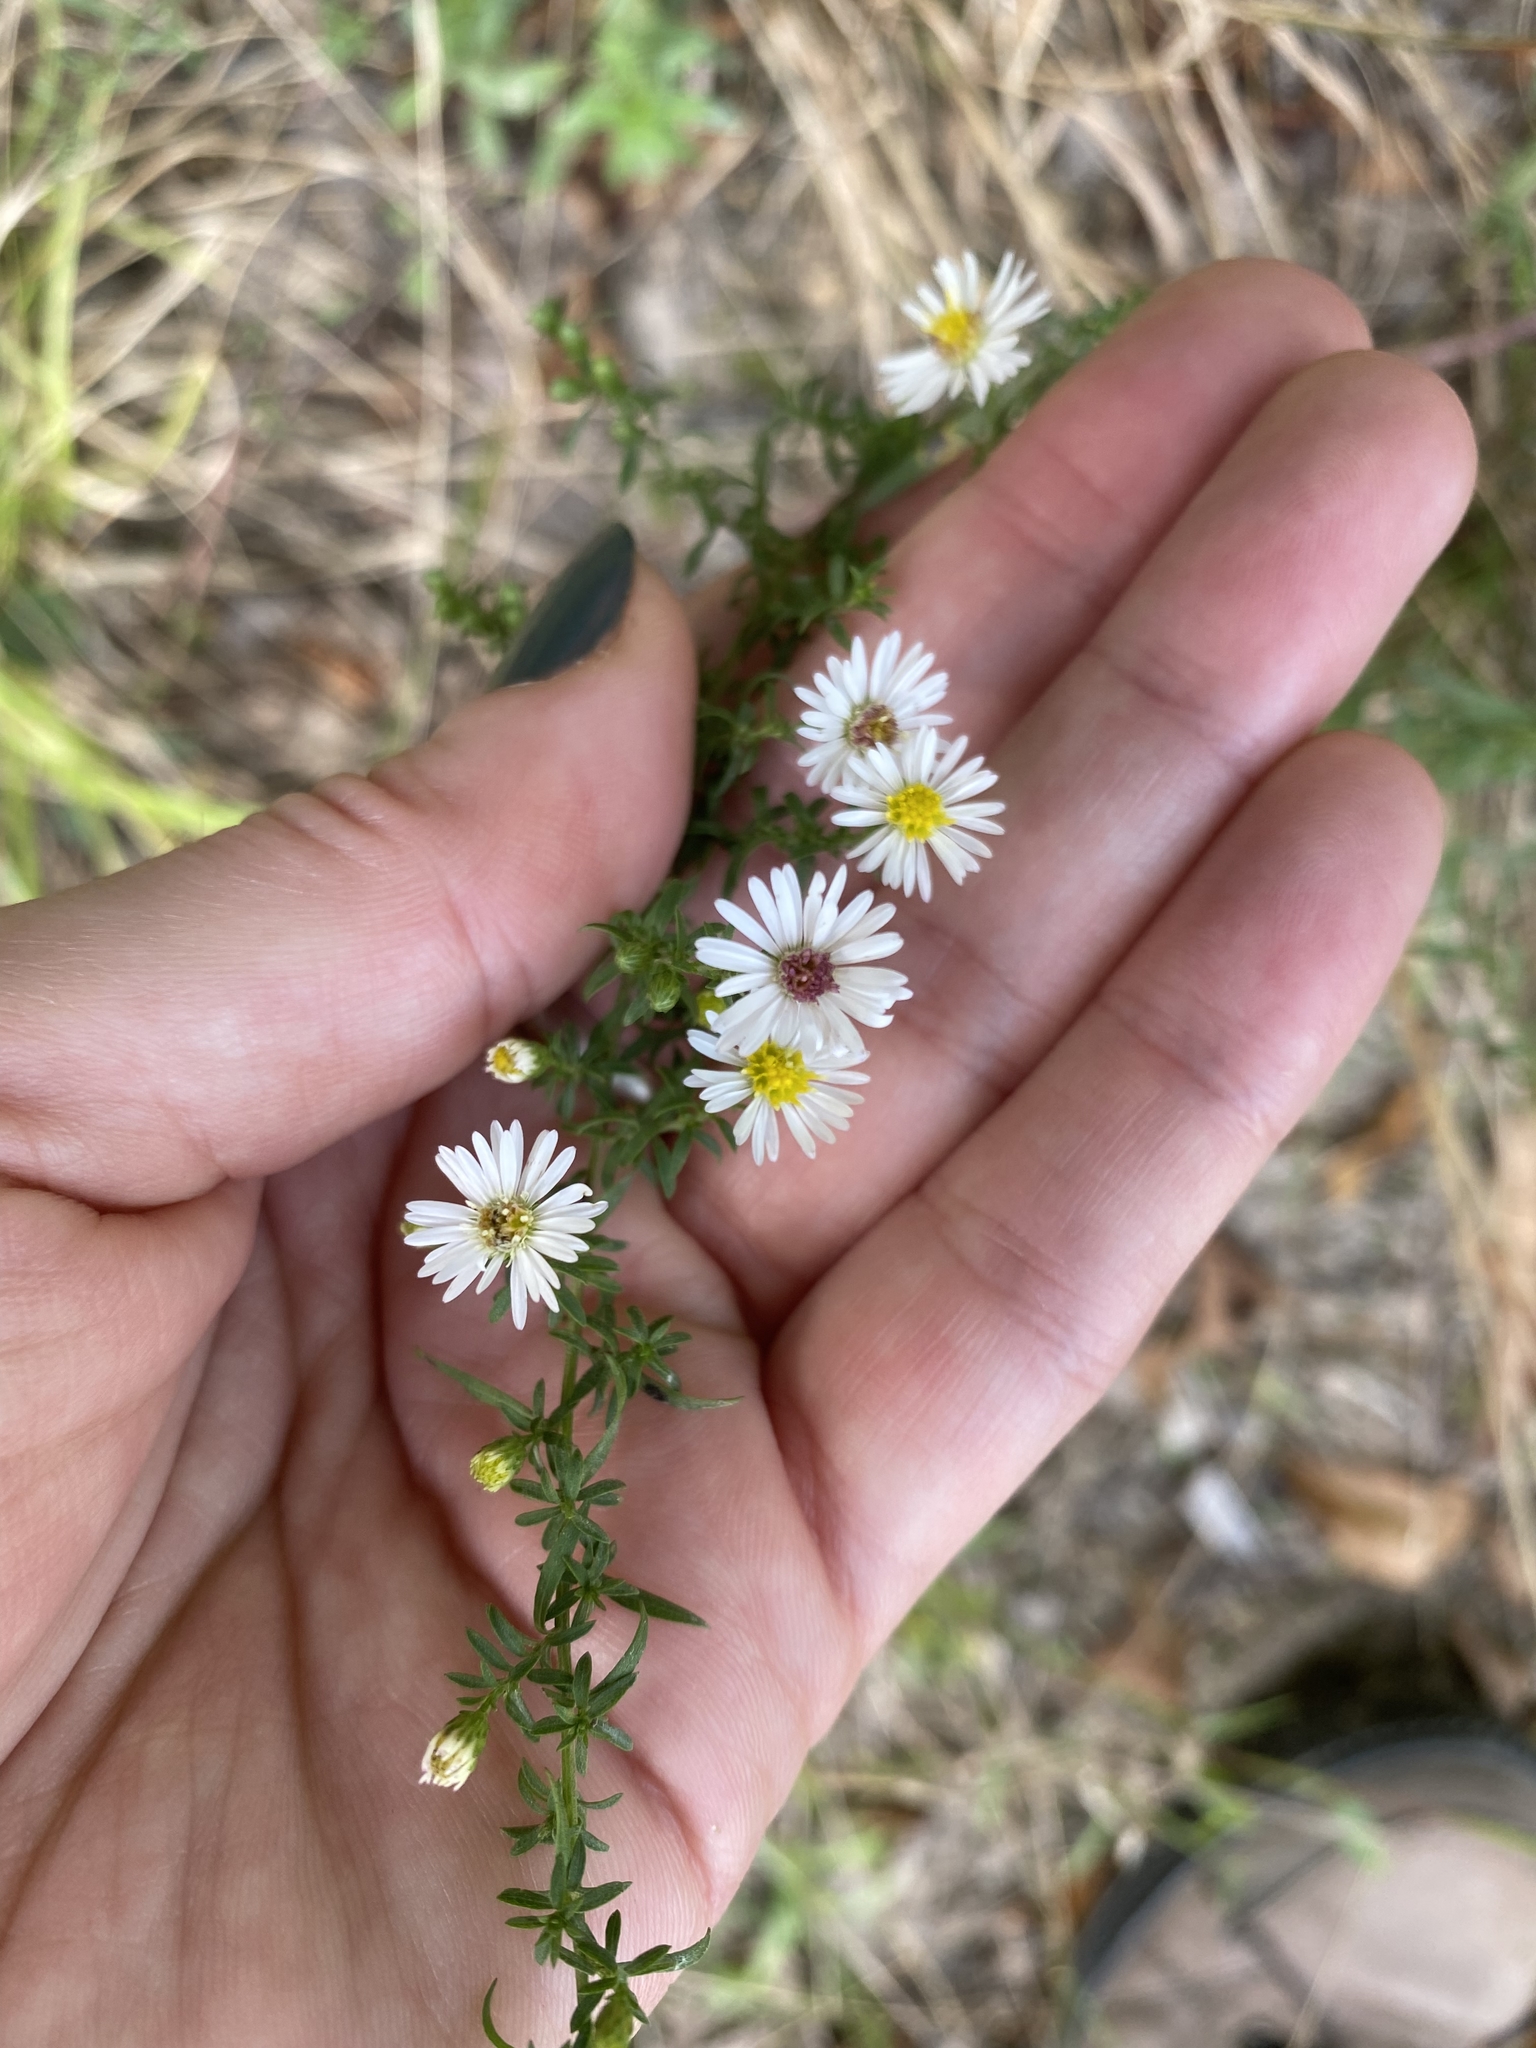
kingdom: Plantae
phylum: Tracheophyta
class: Magnoliopsida
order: Asterales
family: Asteraceae
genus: Symphyotrichum
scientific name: Symphyotrichum lateriflorum
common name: Calico aster
